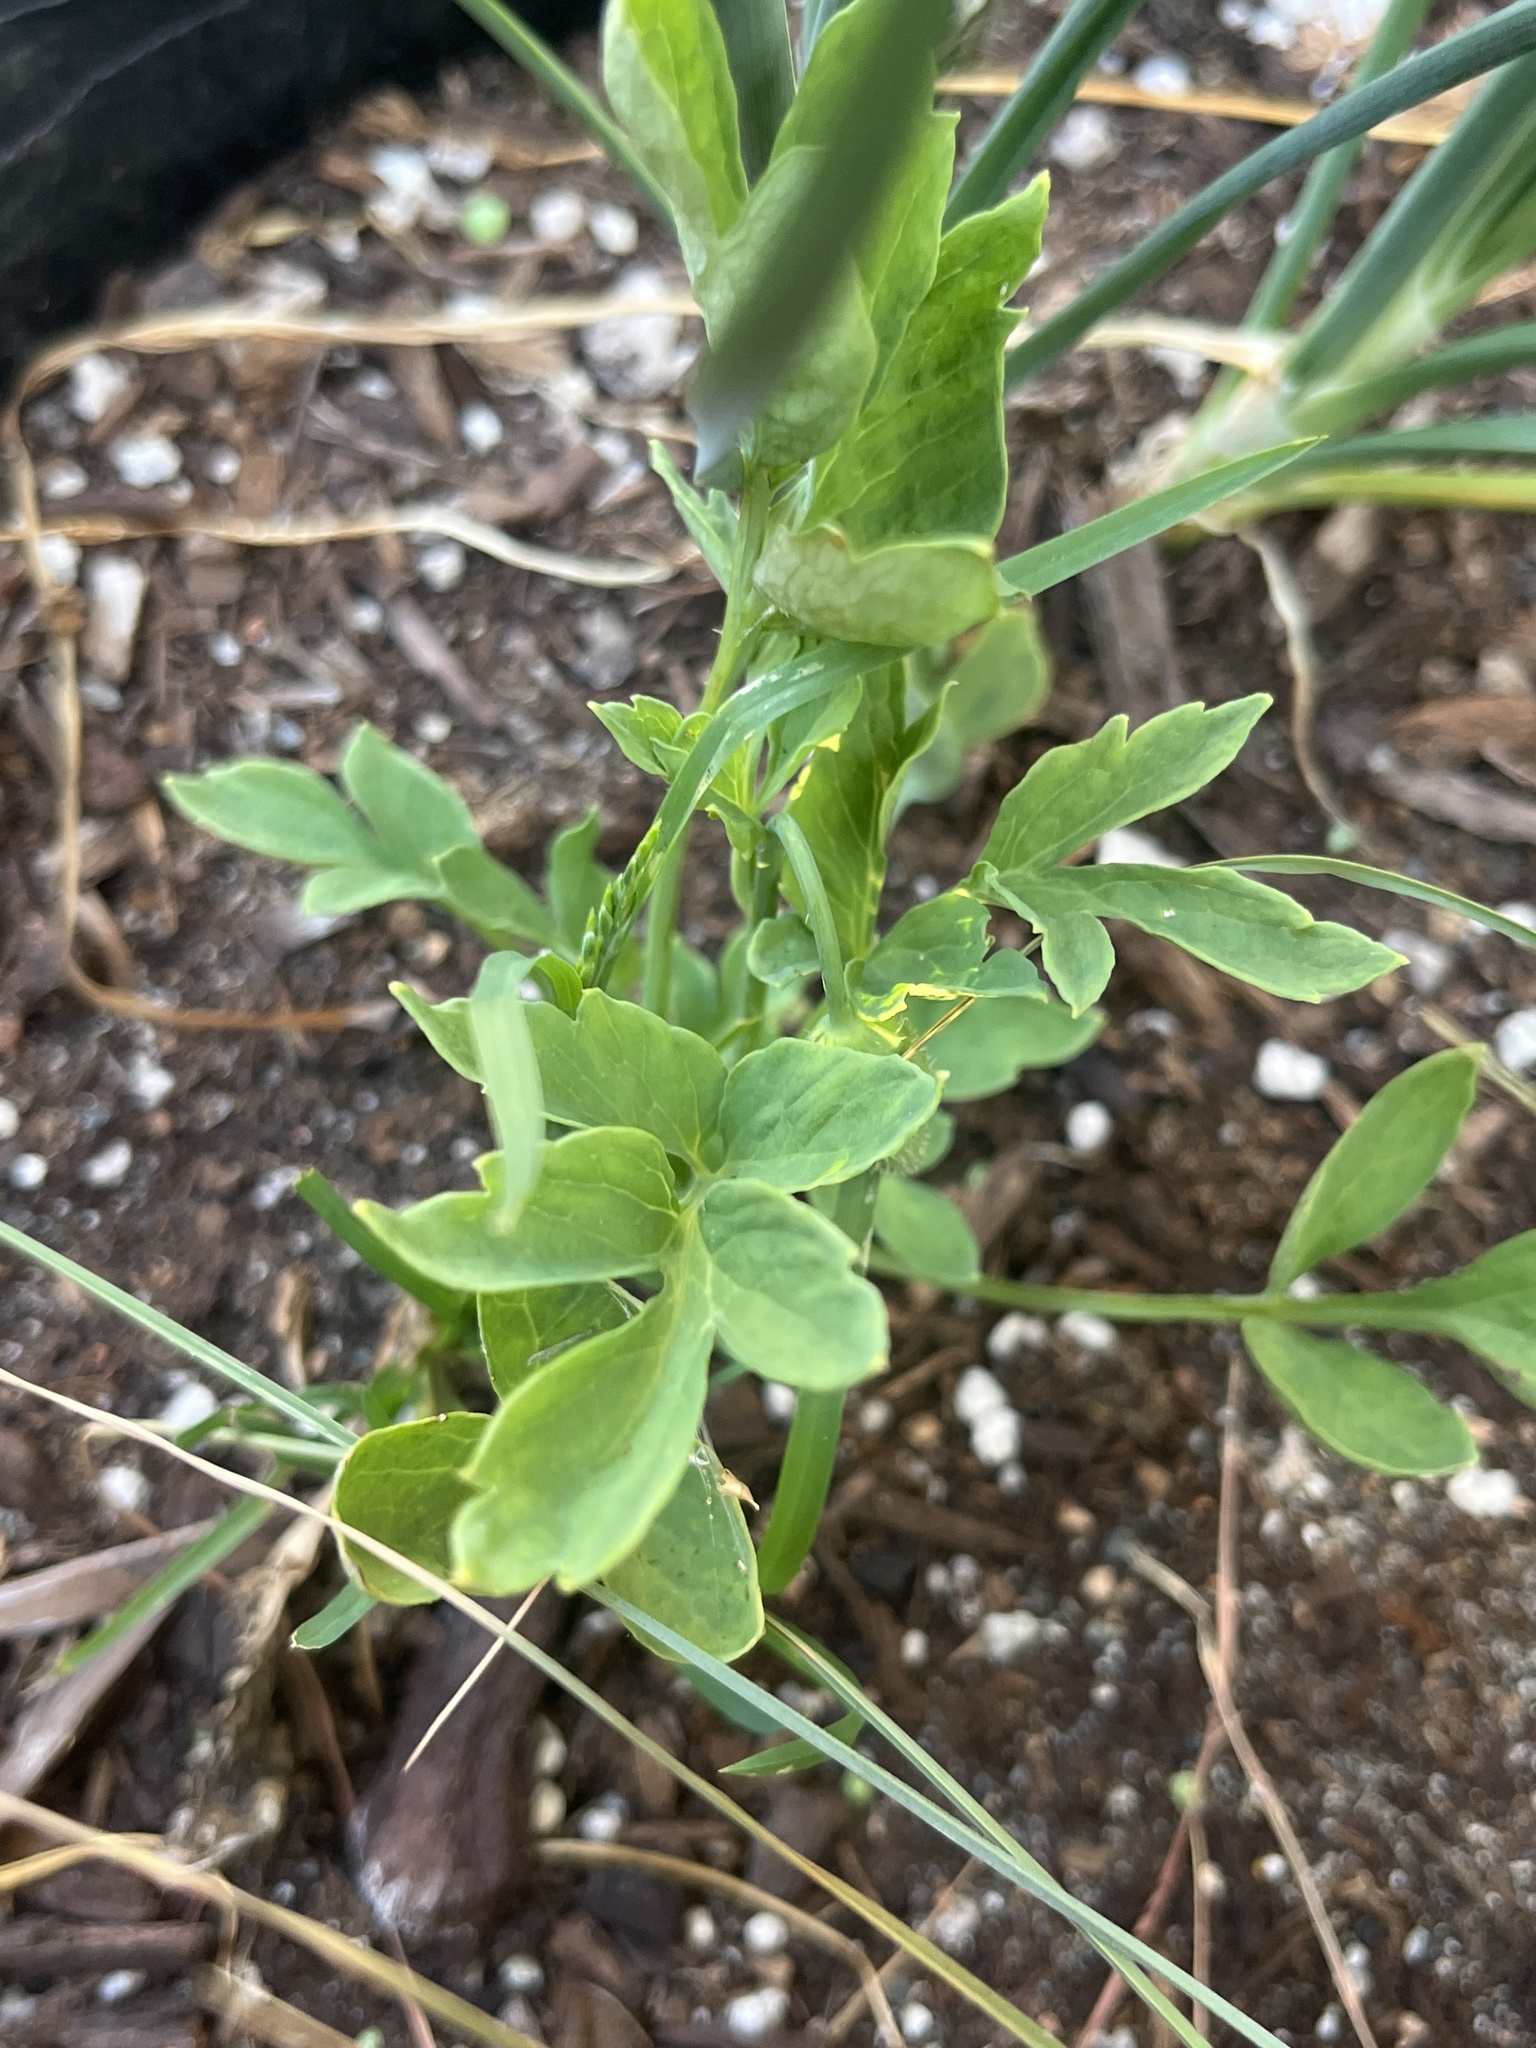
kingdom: Plantae
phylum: Tracheophyta
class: Magnoliopsida
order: Ranunculales
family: Papaveraceae
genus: Papaver
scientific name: Papaver cambricum
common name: Poppy
